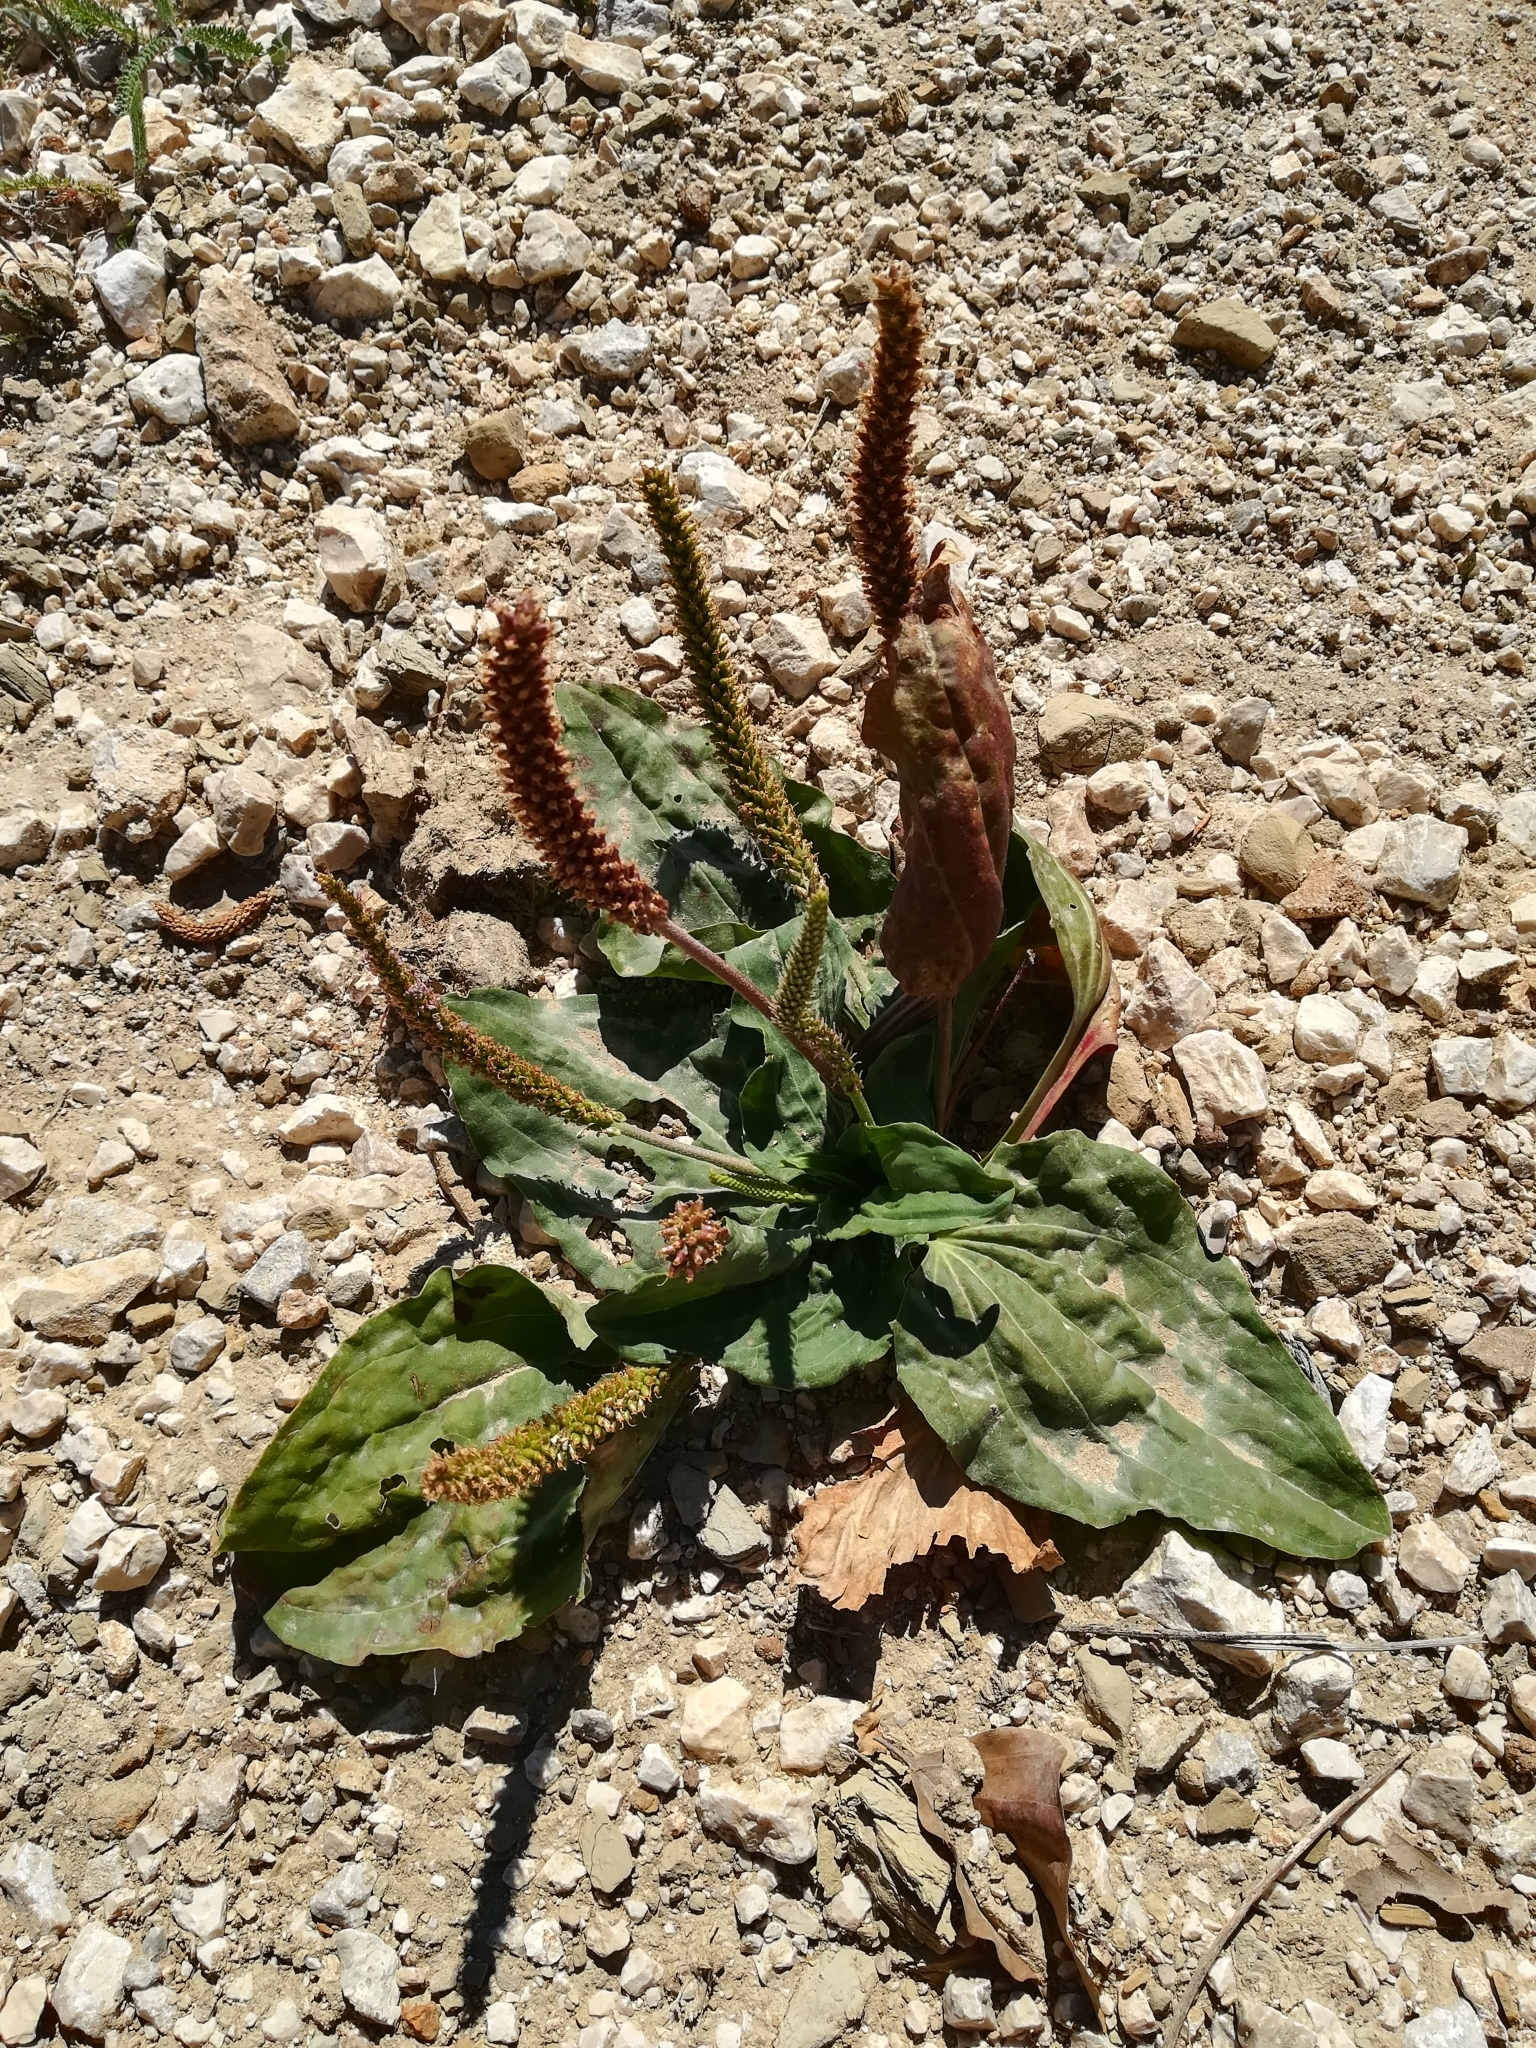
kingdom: Plantae
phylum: Tracheophyta
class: Magnoliopsida
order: Lamiales
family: Plantaginaceae
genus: Plantago
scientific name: Plantago major
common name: Common plantain
